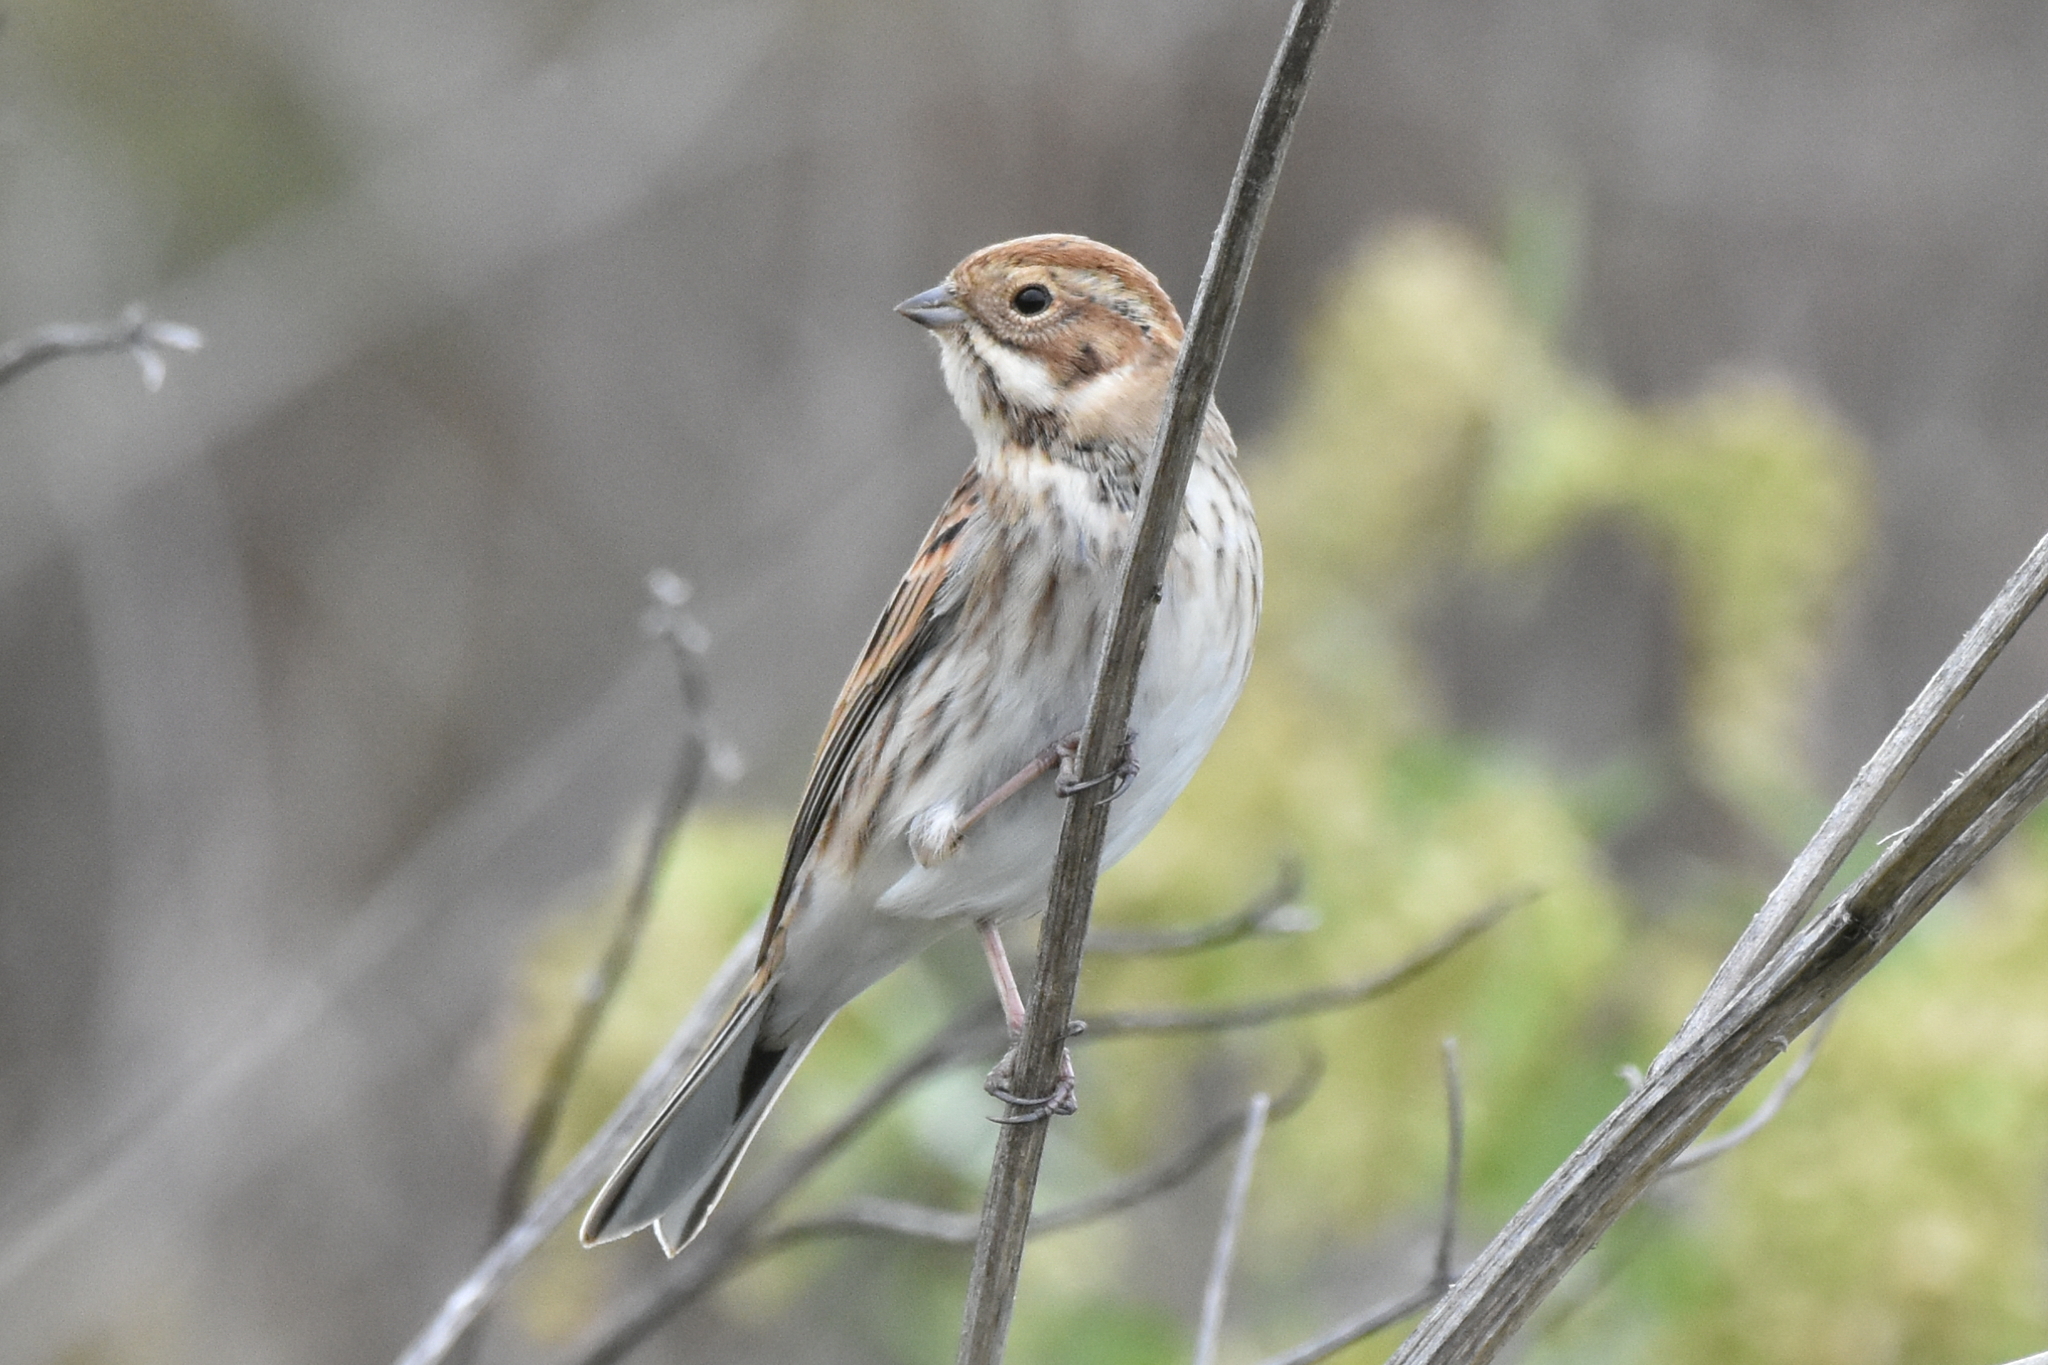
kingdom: Animalia
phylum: Chordata
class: Aves
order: Passeriformes
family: Emberizidae
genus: Emberiza
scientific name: Emberiza schoeniclus
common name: Reed bunting
